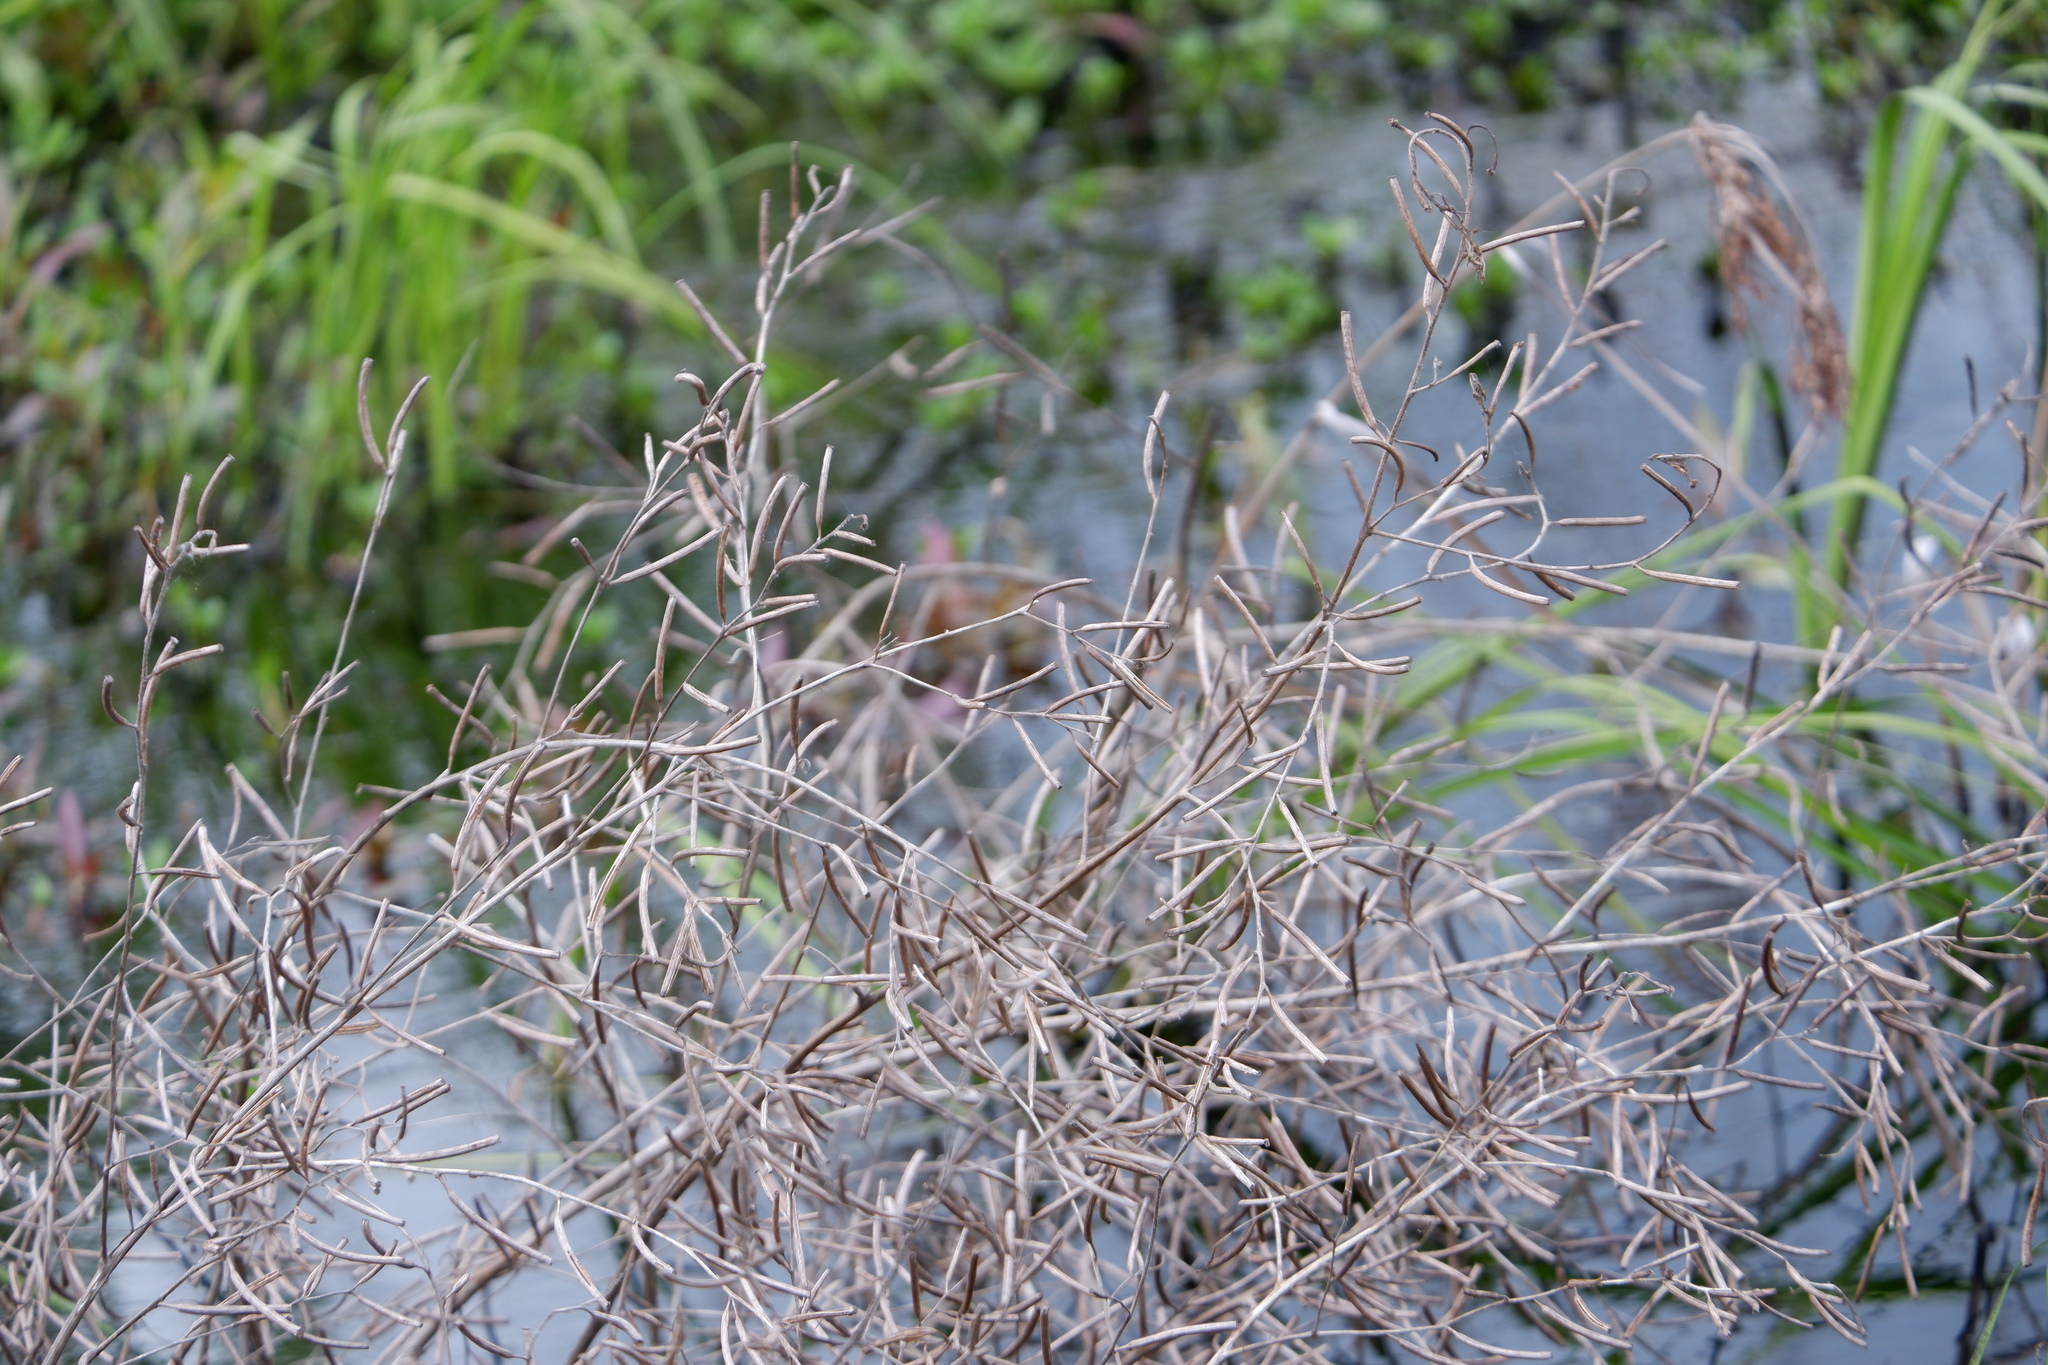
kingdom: Plantae
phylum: Tracheophyta
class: Magnoliopsida
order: Myrtales
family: Onagraceae
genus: Ludwigia
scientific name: Ludwigia leptocarpa
